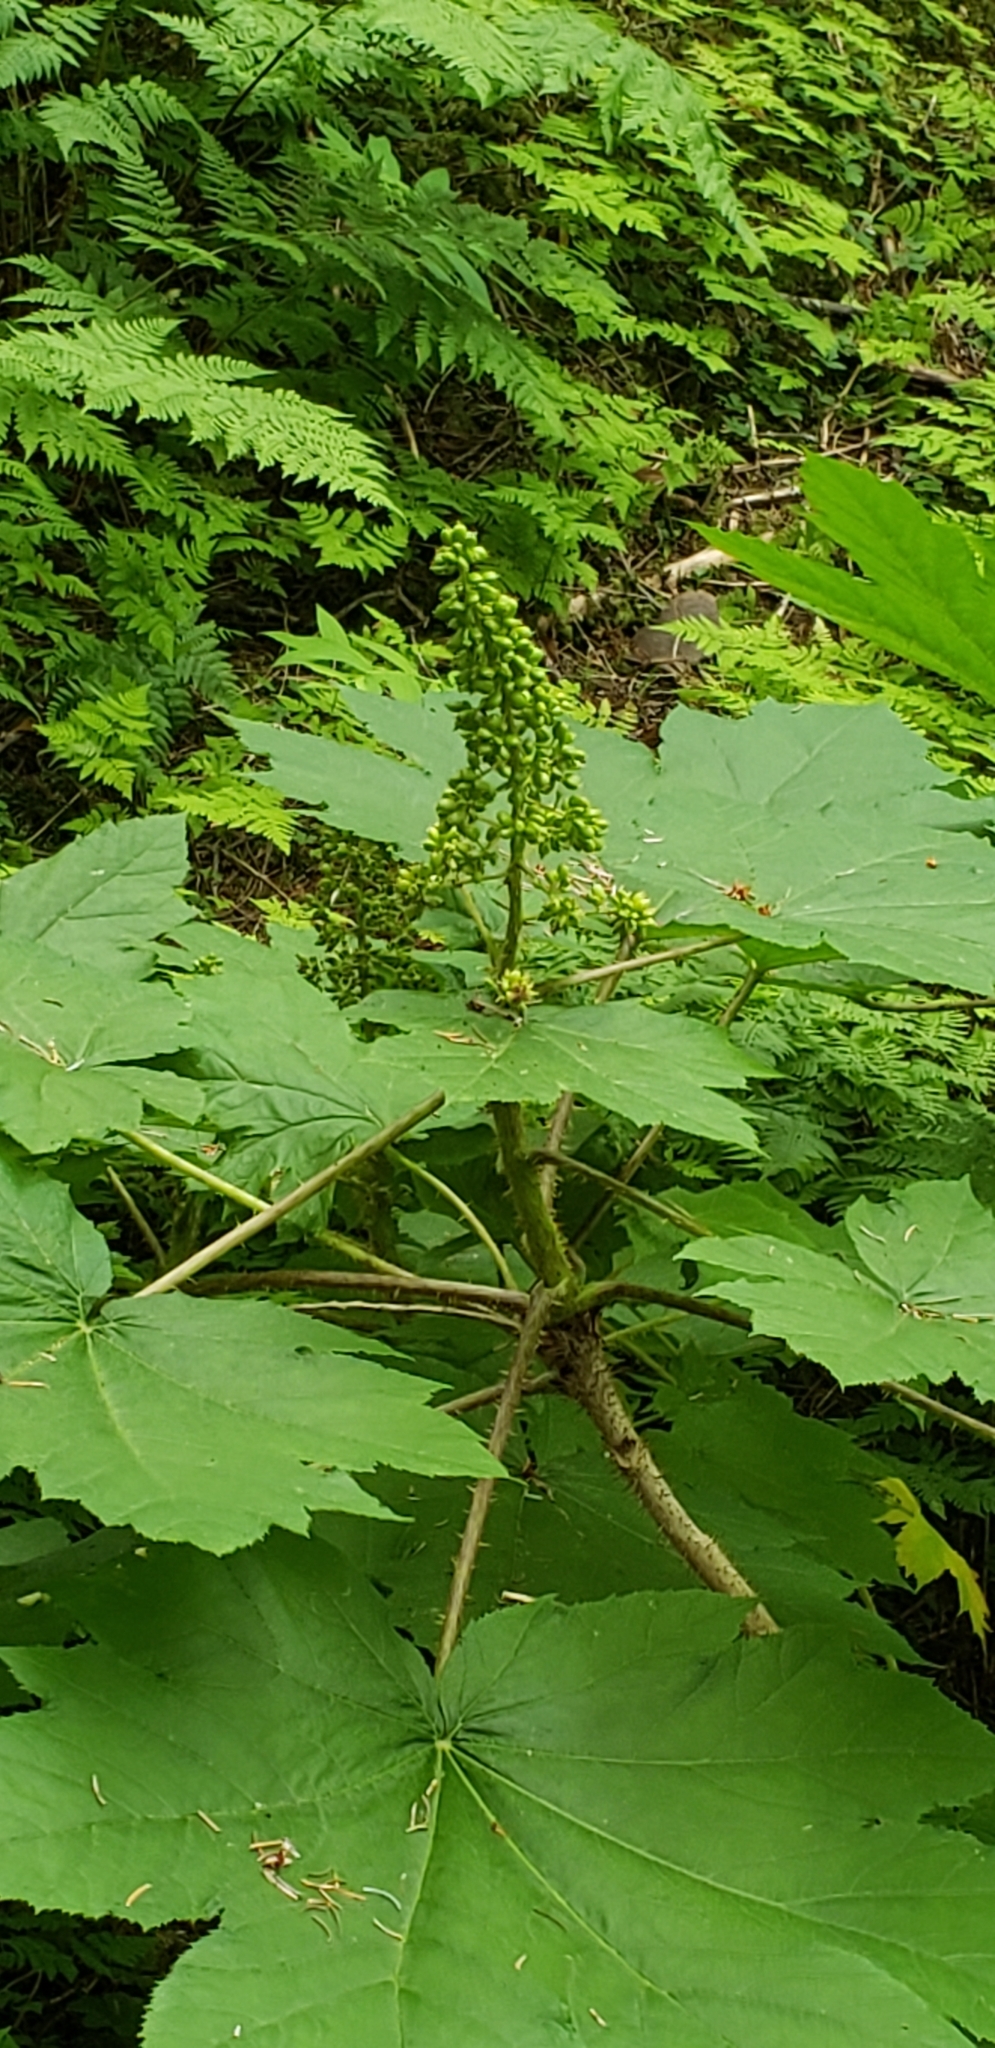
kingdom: Plantae
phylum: Tracheophyta
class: Magnoliopsida
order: Apiales
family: Araliaceae
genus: Oplopanax
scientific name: Oplopanax horridus
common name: Devil's walking-stick
